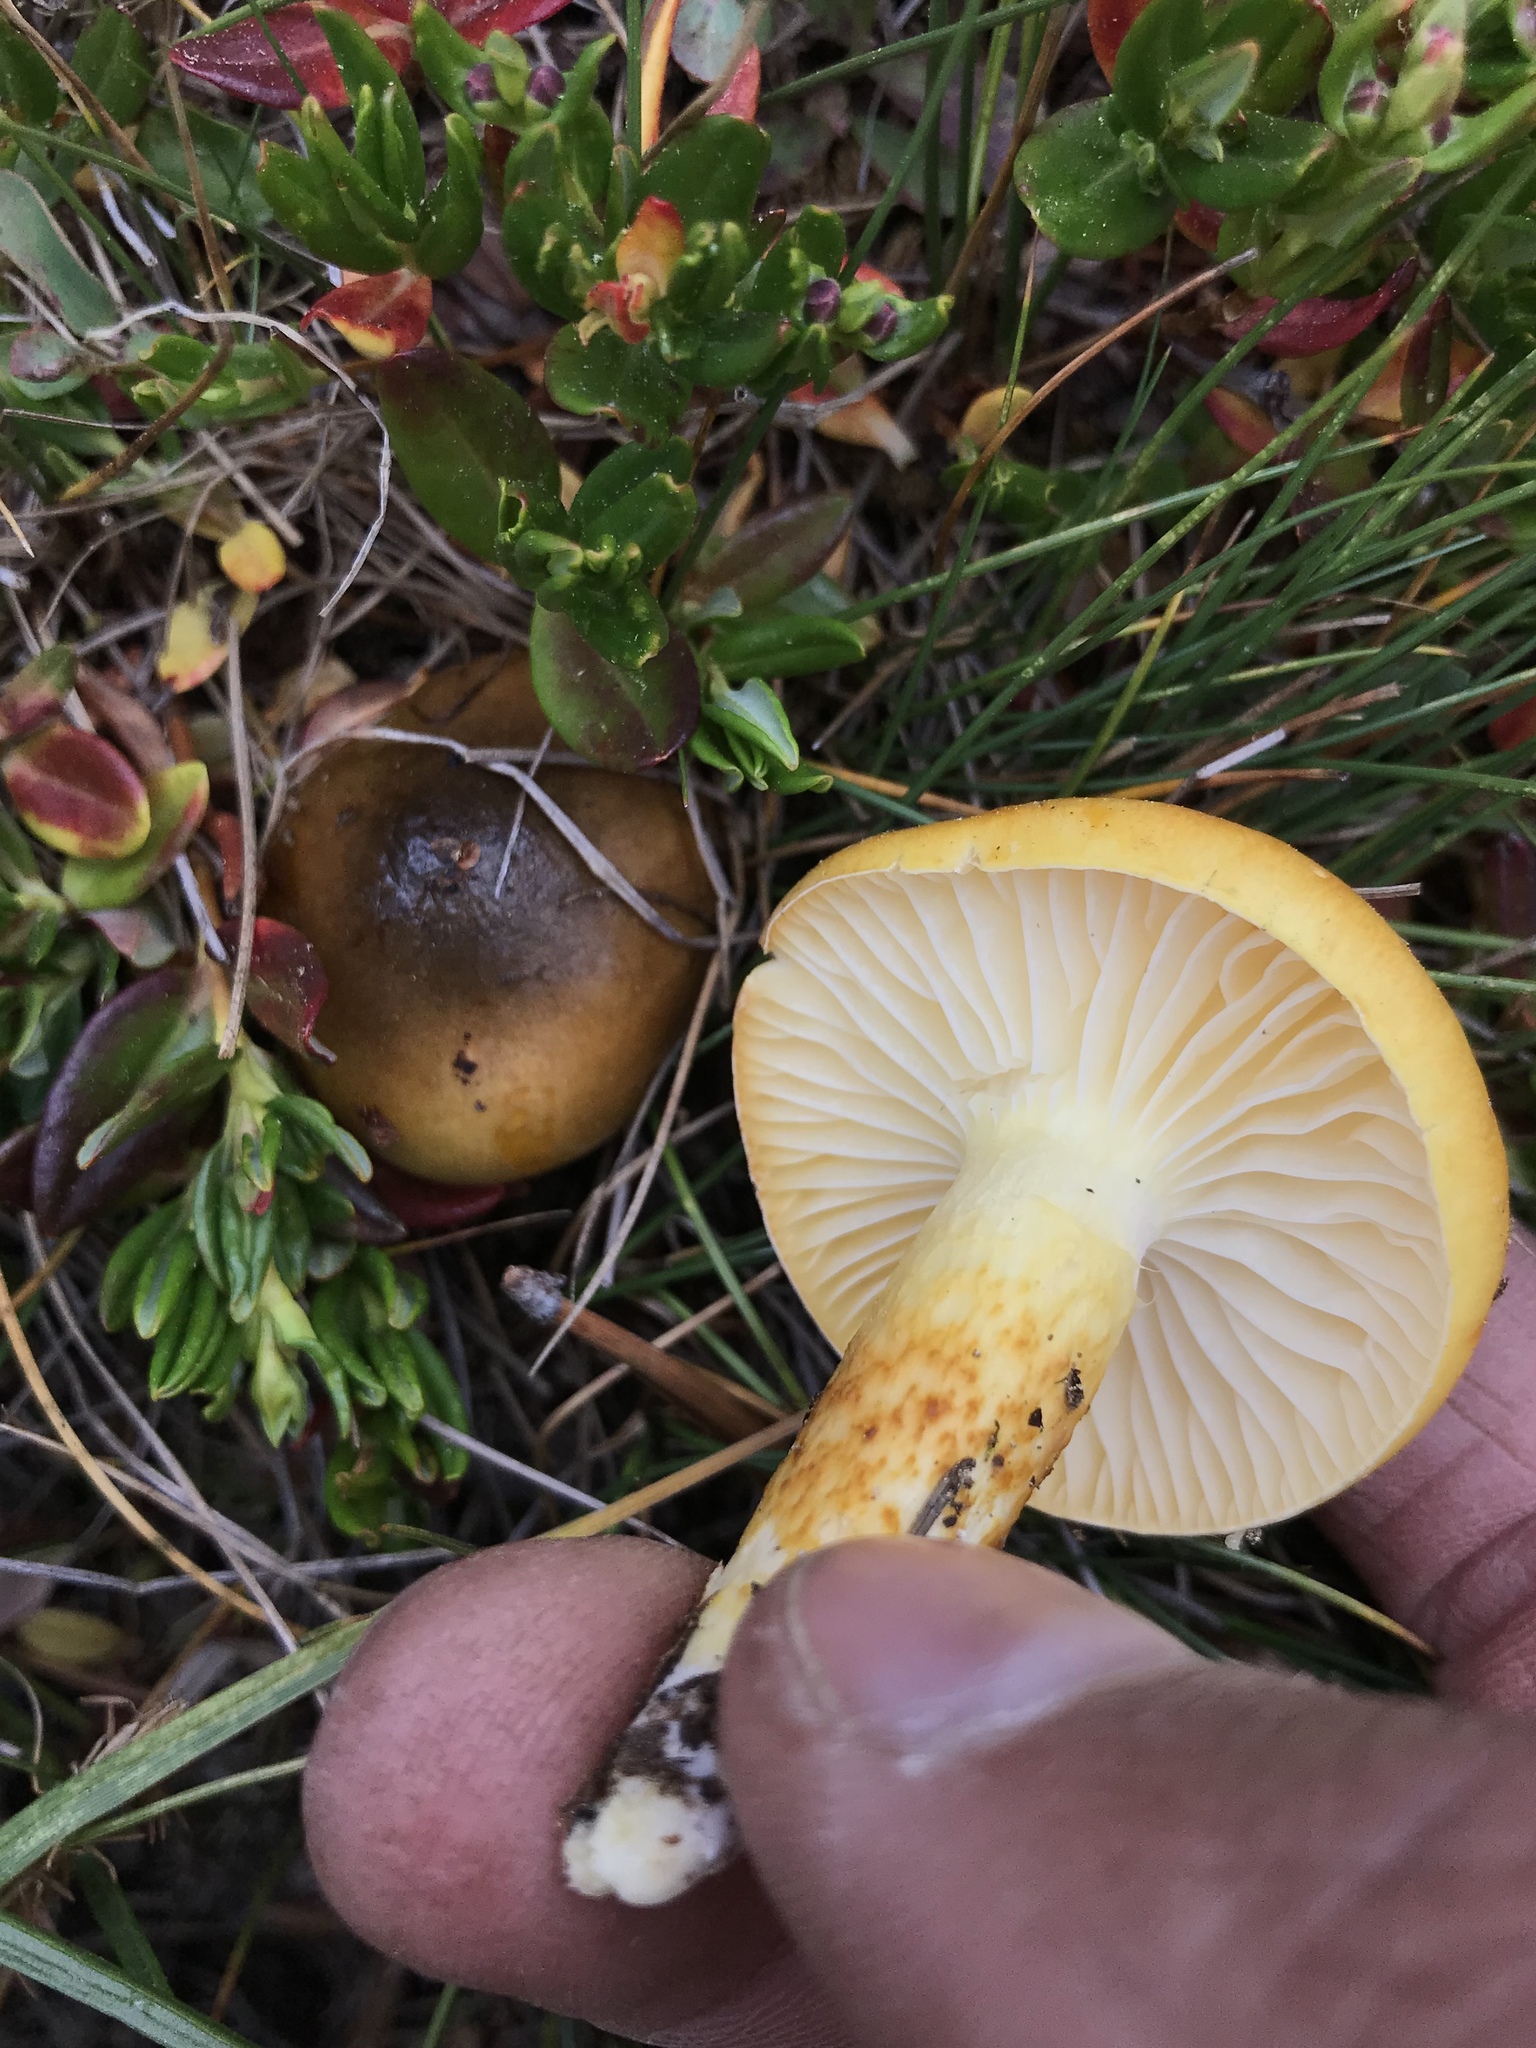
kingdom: Fungi
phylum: Basidiomycota
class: Agaricomycetes
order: Agaricales
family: Hygrophoraceae
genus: Hygrophorus
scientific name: Hygrophorus siccipes
